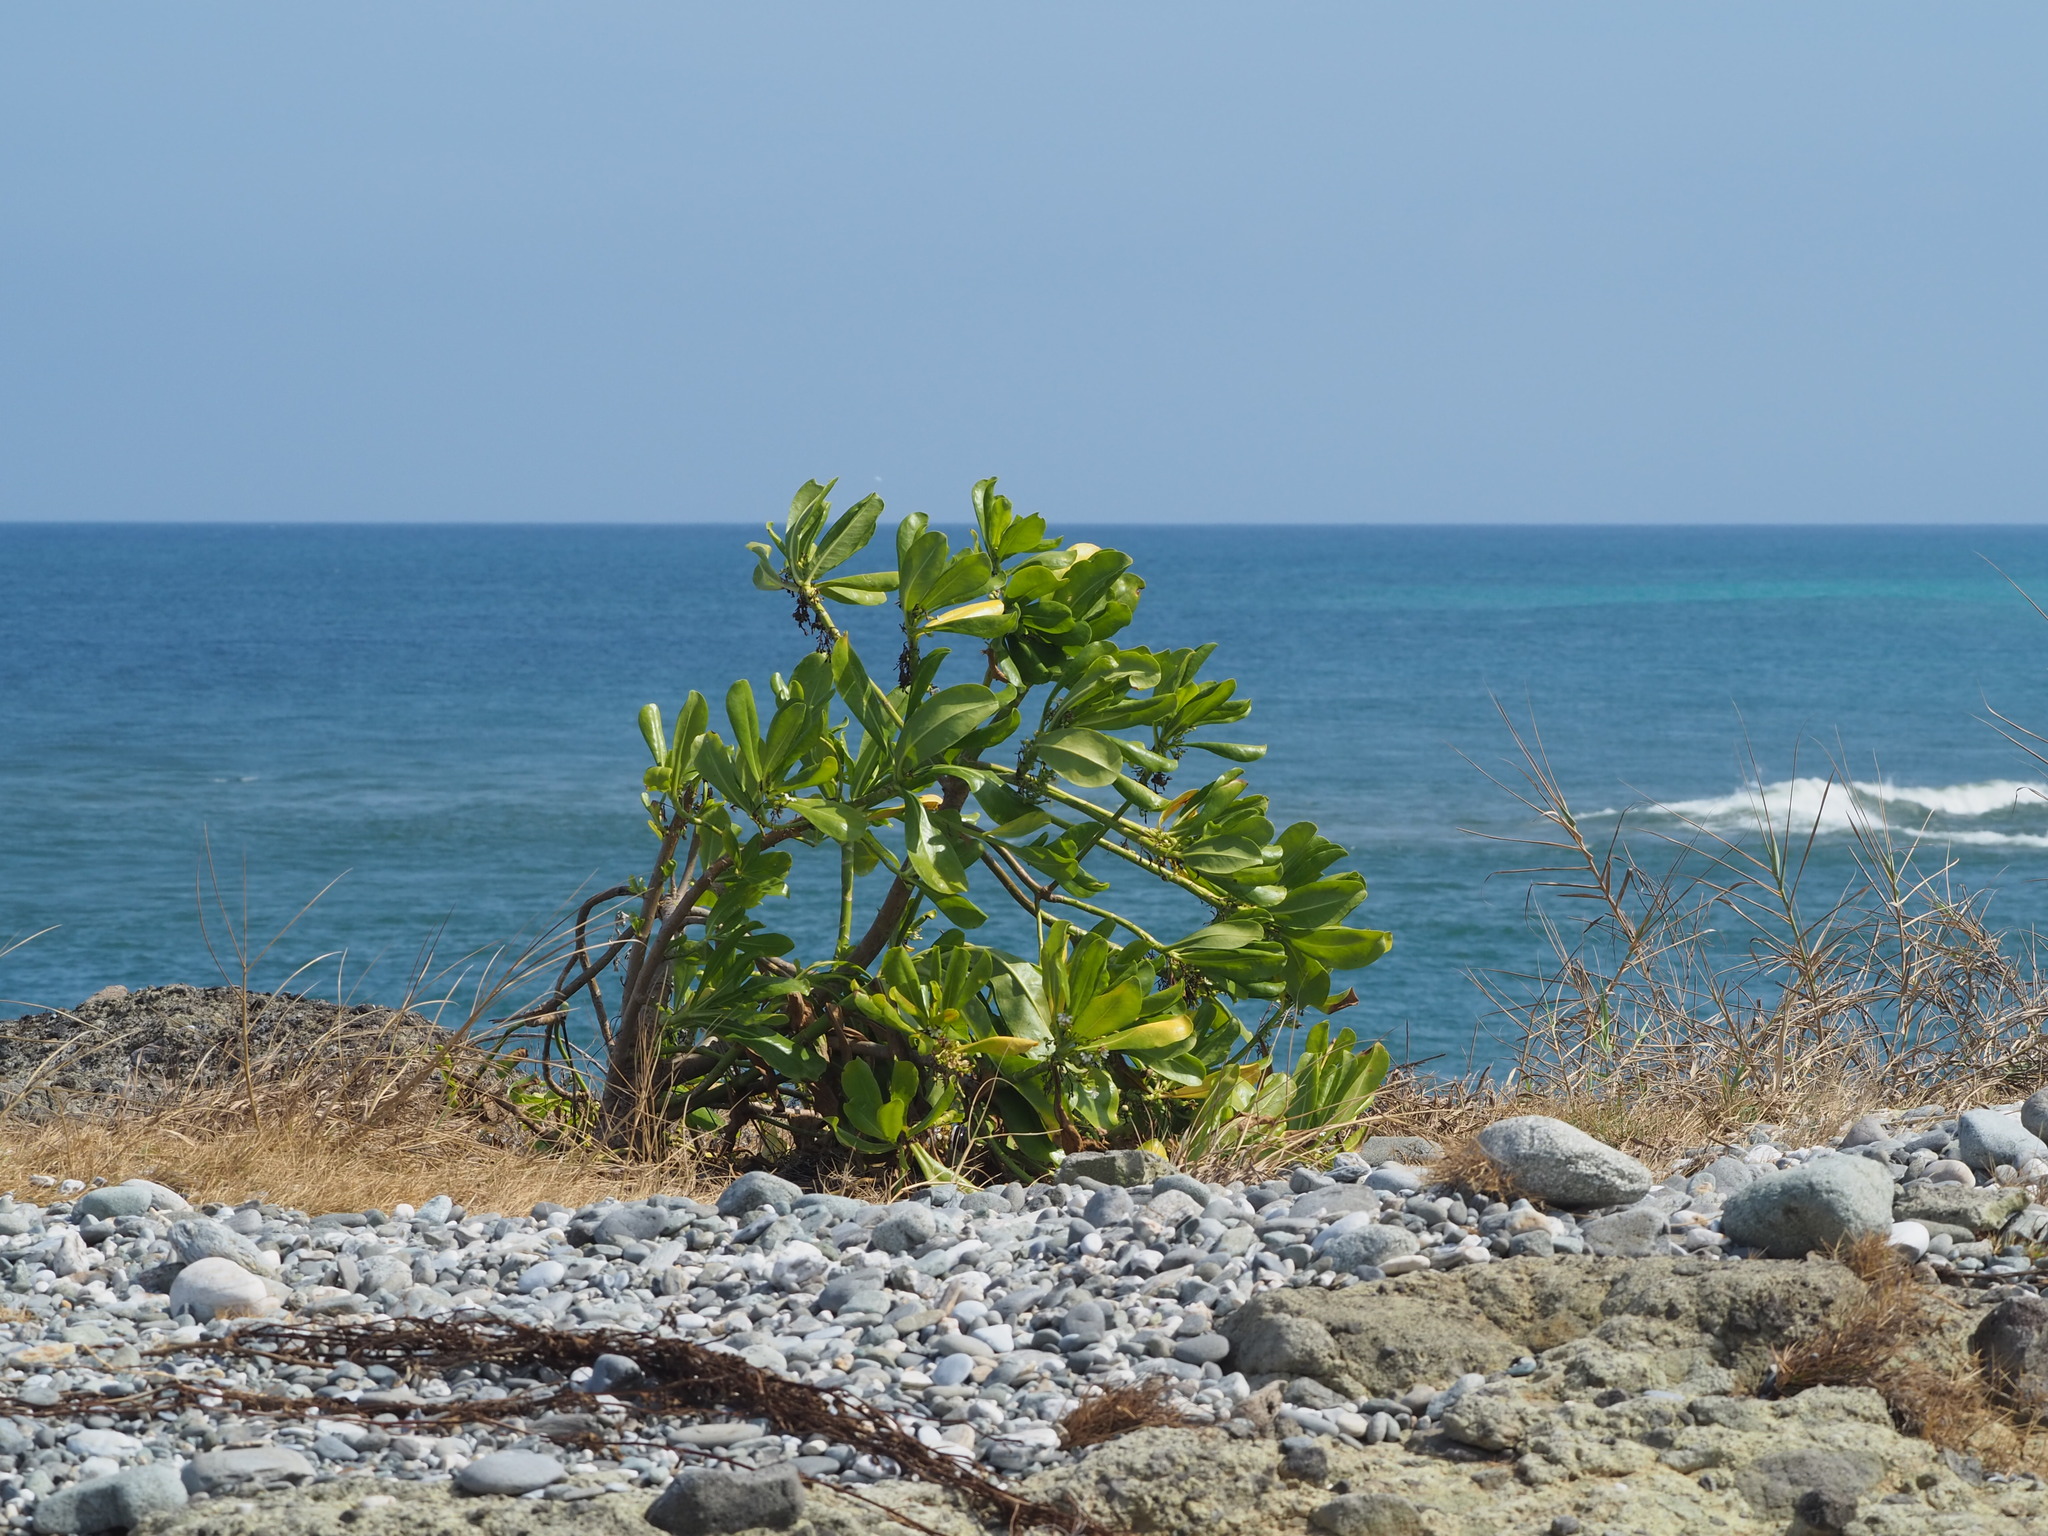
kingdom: Plantae
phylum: Tracheophyta
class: Magnoliopsida
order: Asterales
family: Goodeniaceae
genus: Scaevola
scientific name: Scaevola taccada
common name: Sea lettucetree
